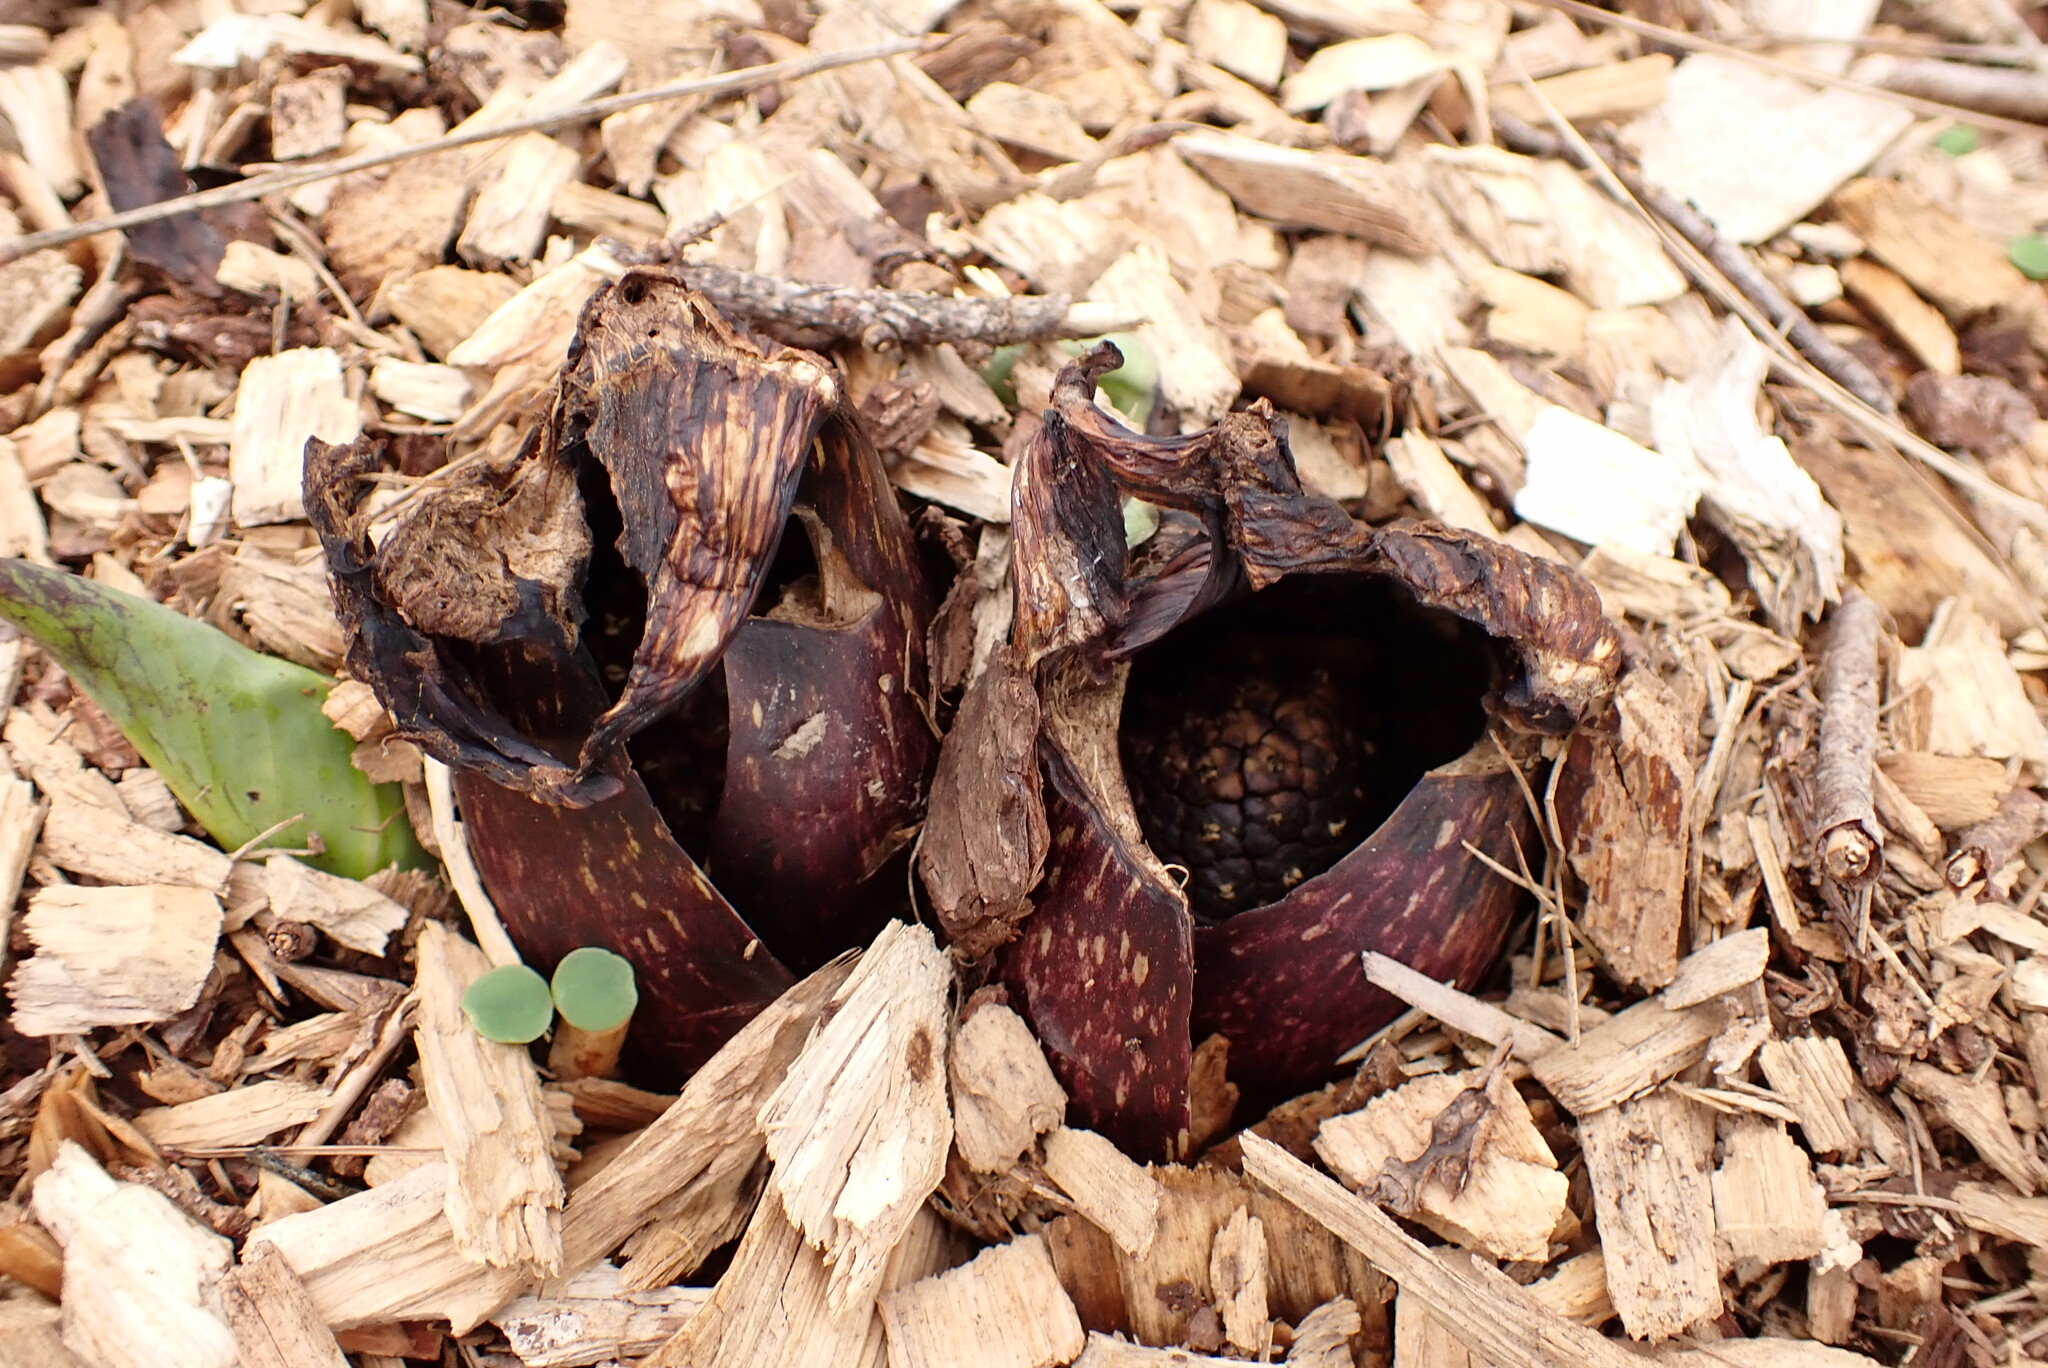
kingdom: Plantae
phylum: Tracheophyta
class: Liliopsida
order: Alismatales
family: Araceae
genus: Symplocarpus
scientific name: Symplocarpus foetidus
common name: Eastern skunk cabbage
